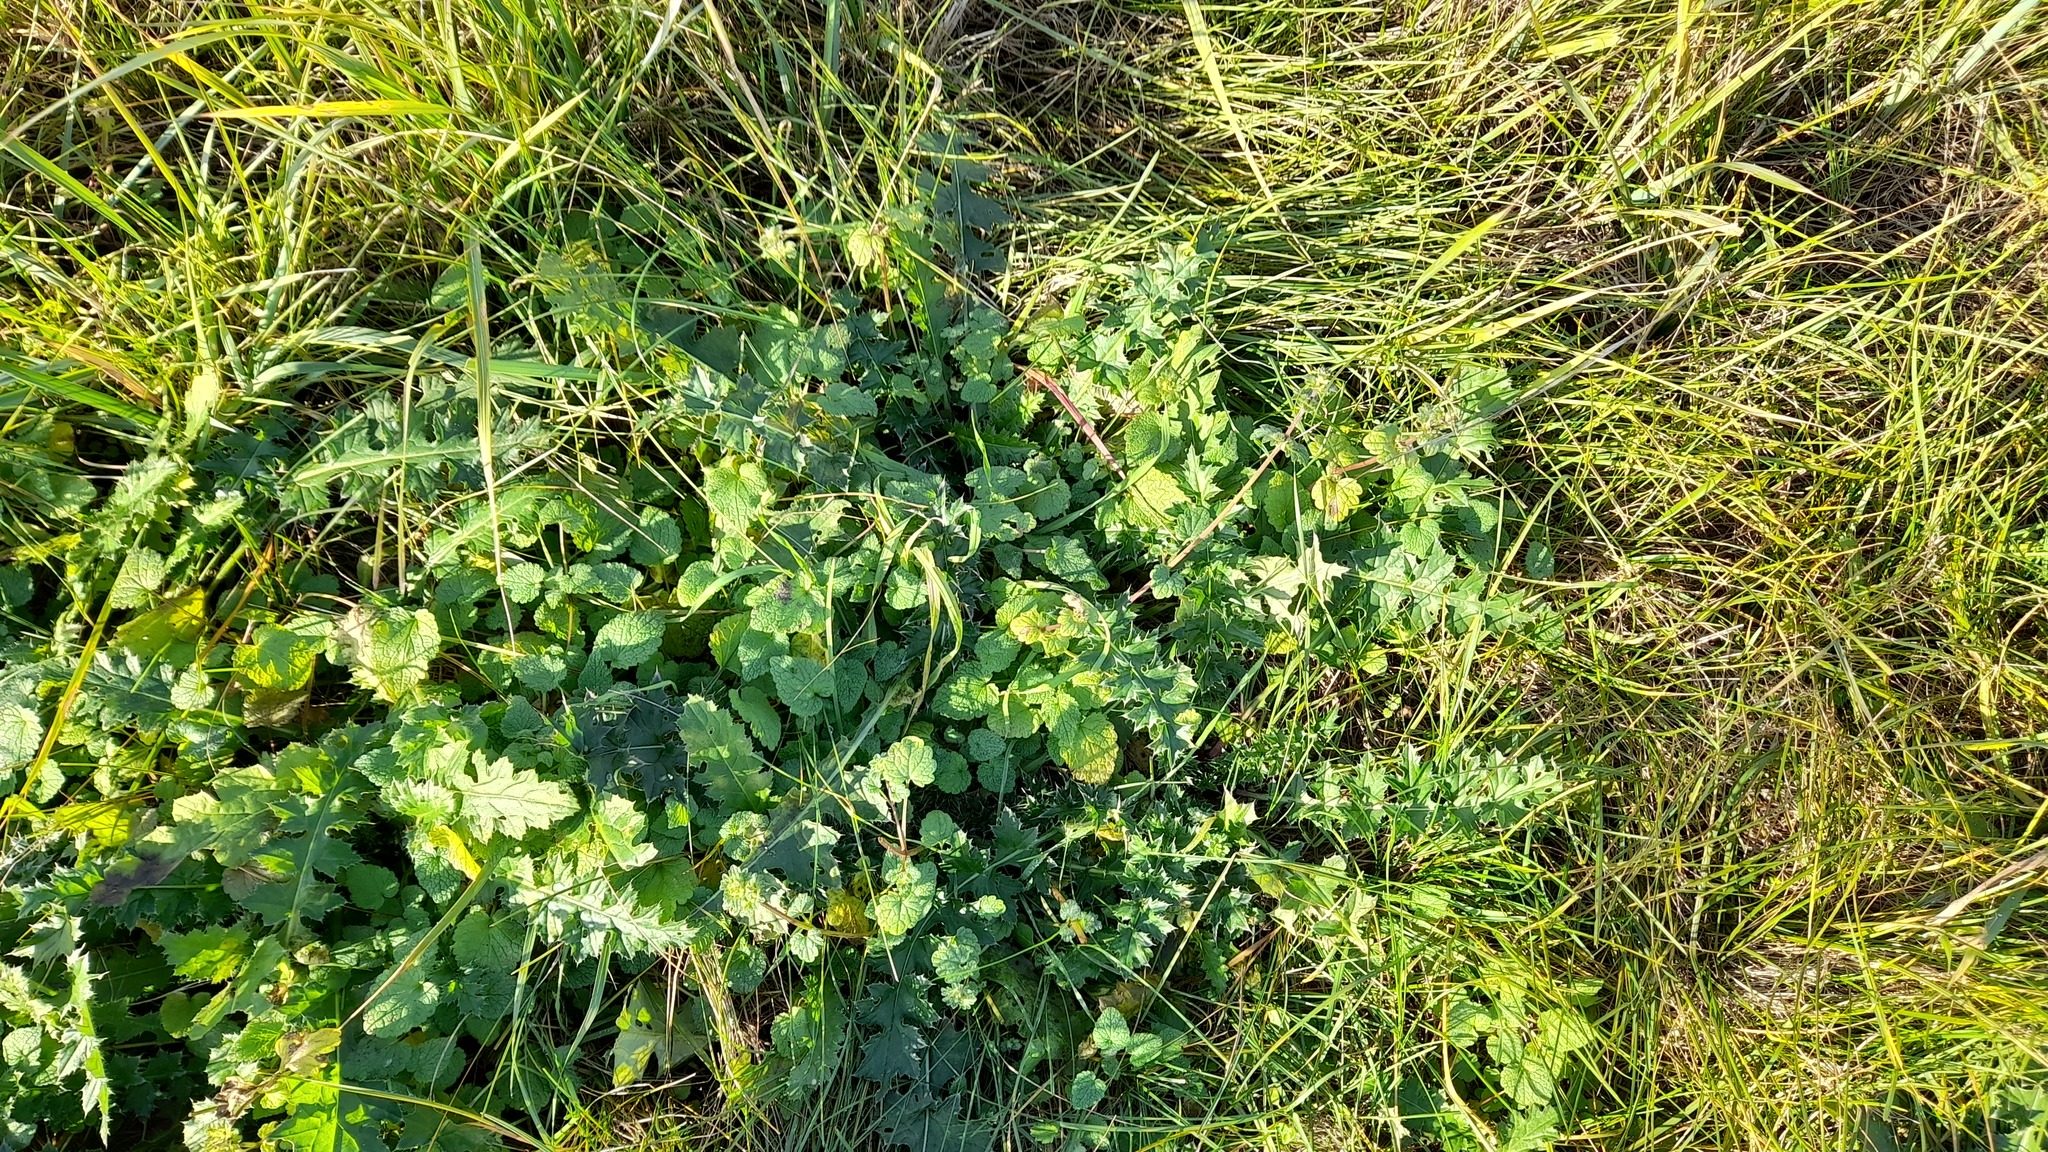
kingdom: Plantae
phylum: Tracheophyta
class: Magnoliopsida
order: Lamiales
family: Lamiaceae
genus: Lamium
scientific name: Lamium amplexicaule
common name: Henbit dead-nettle
